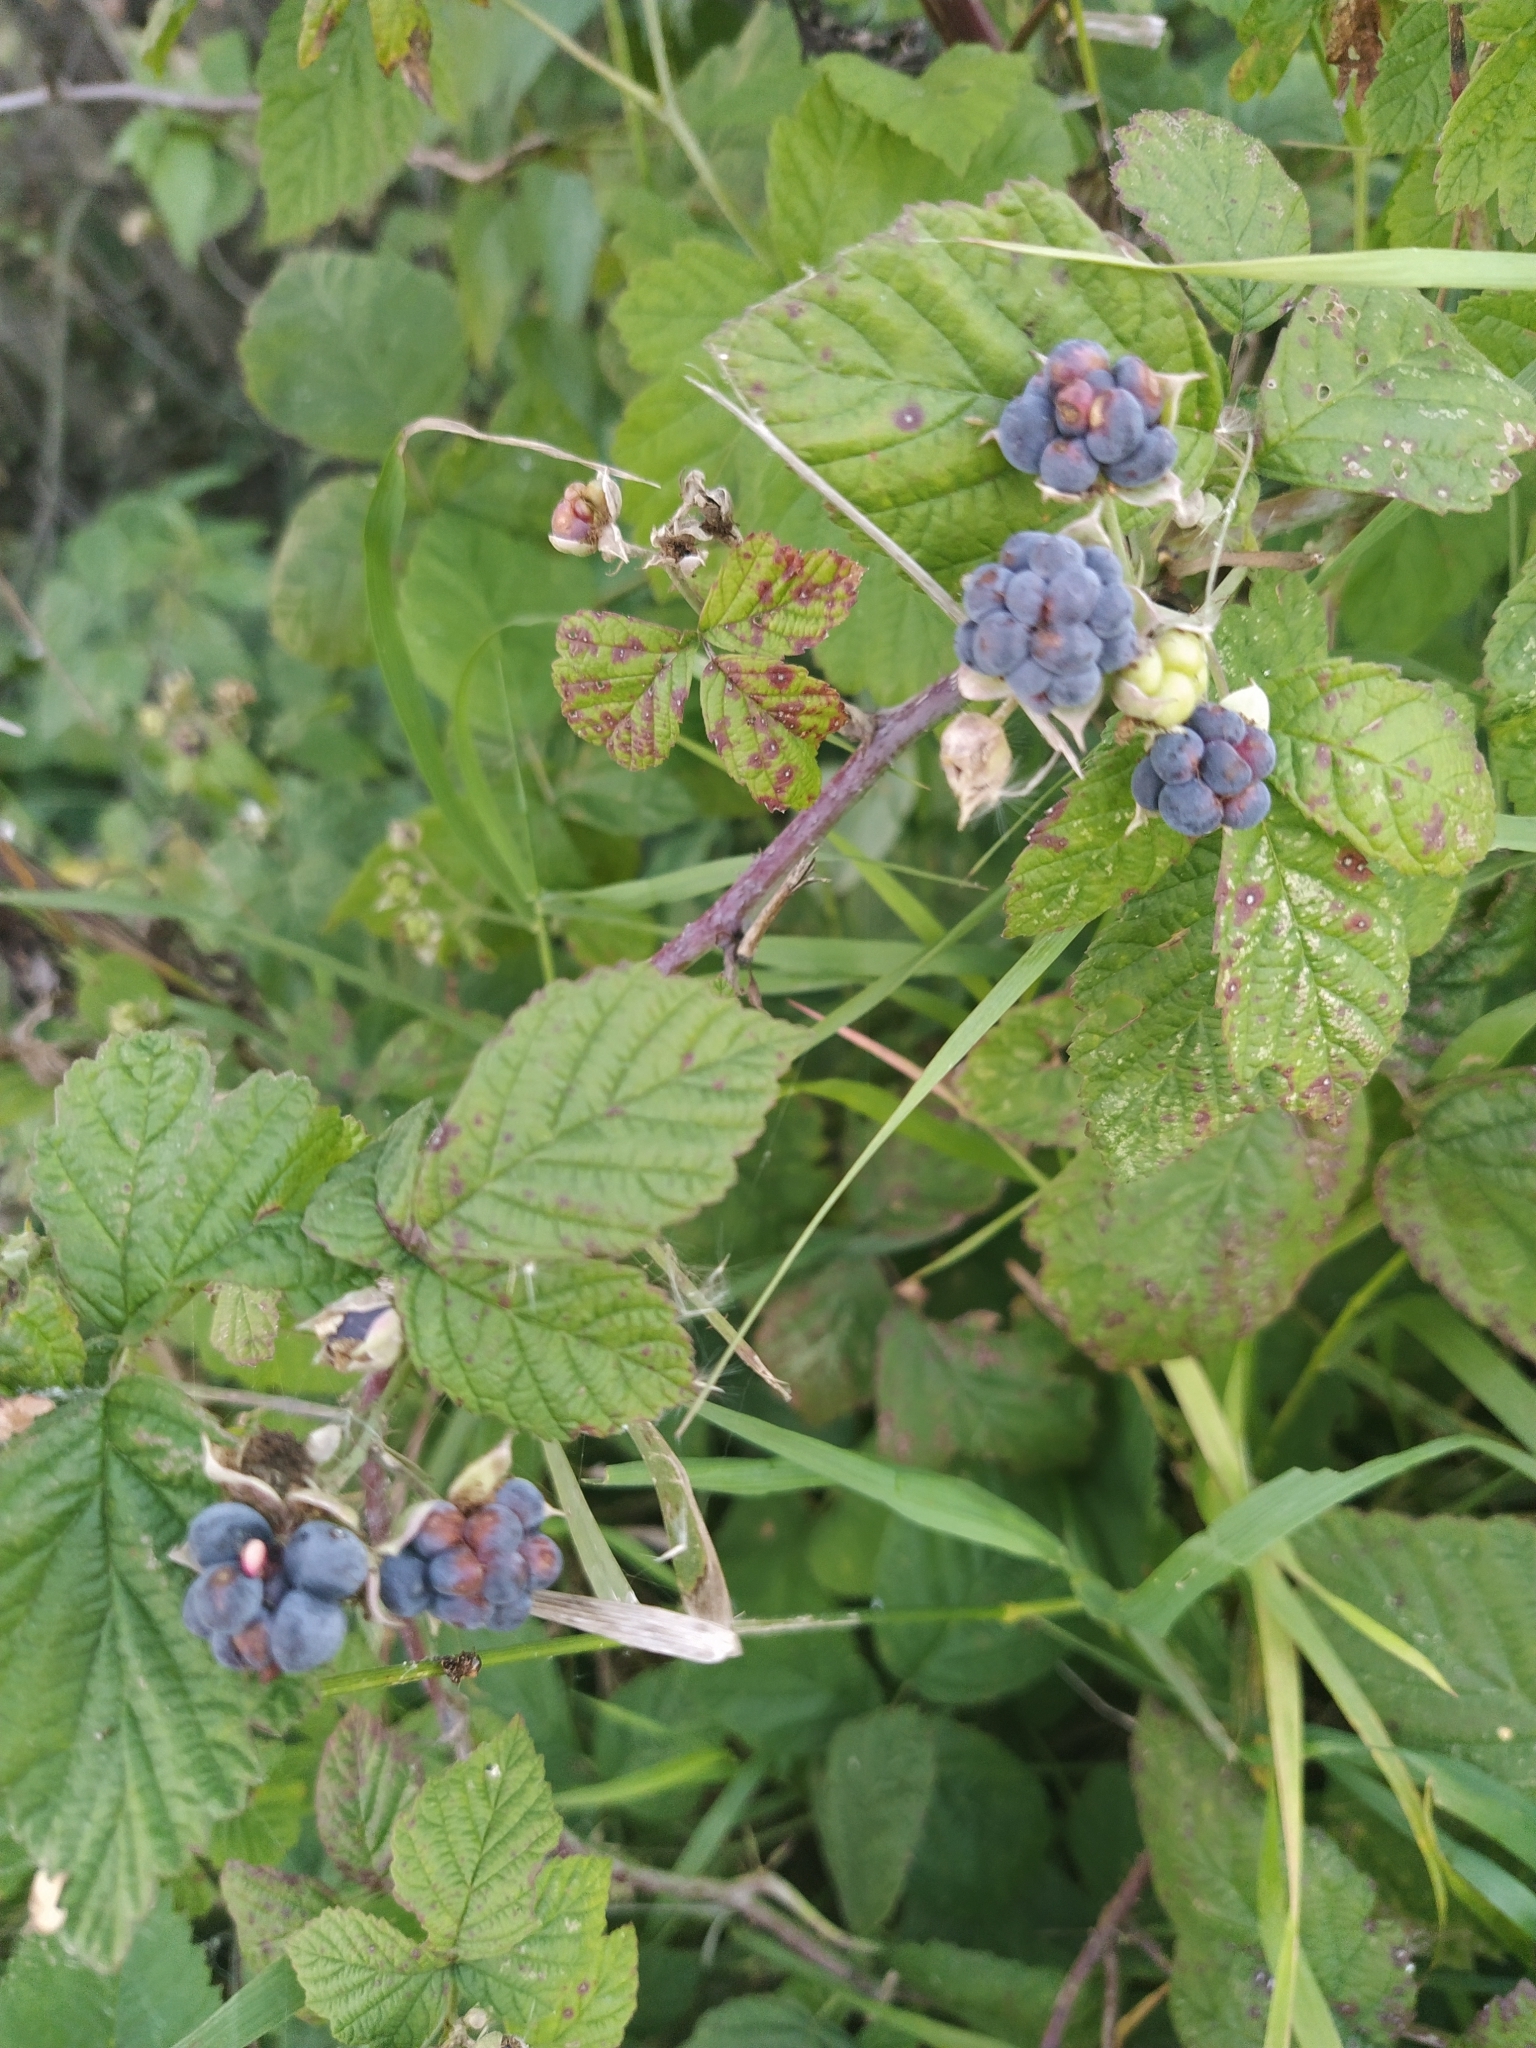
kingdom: Plantae
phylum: Tracheophyta
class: Magnoliopsida
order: Rosales
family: Rosaceae
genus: Rubus
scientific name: Rubus caesius
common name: Dewberry
